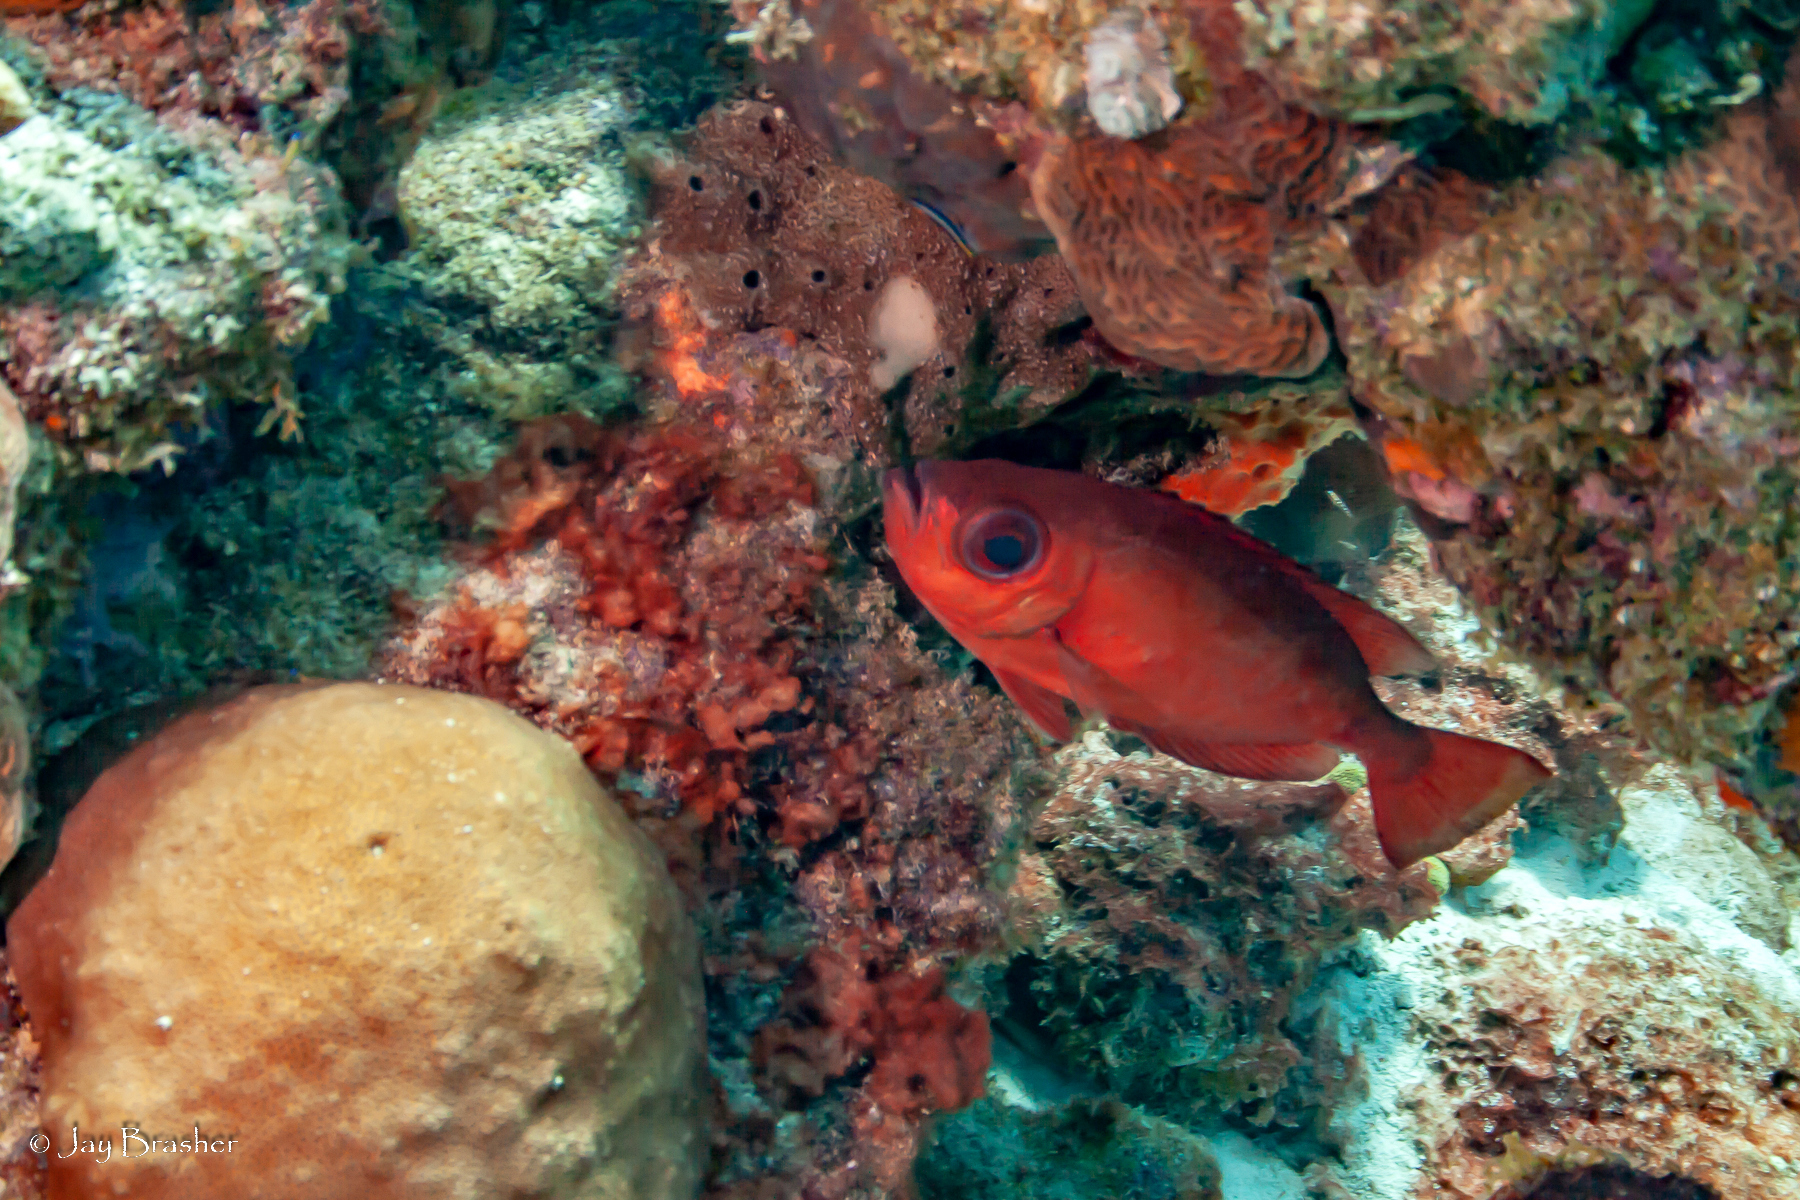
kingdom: Animalia
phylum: Chordata
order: Perciformes
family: Priacanthidae
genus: Heteropriacanthus
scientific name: Heteropriacanthus cruentatus
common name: Glasseye
